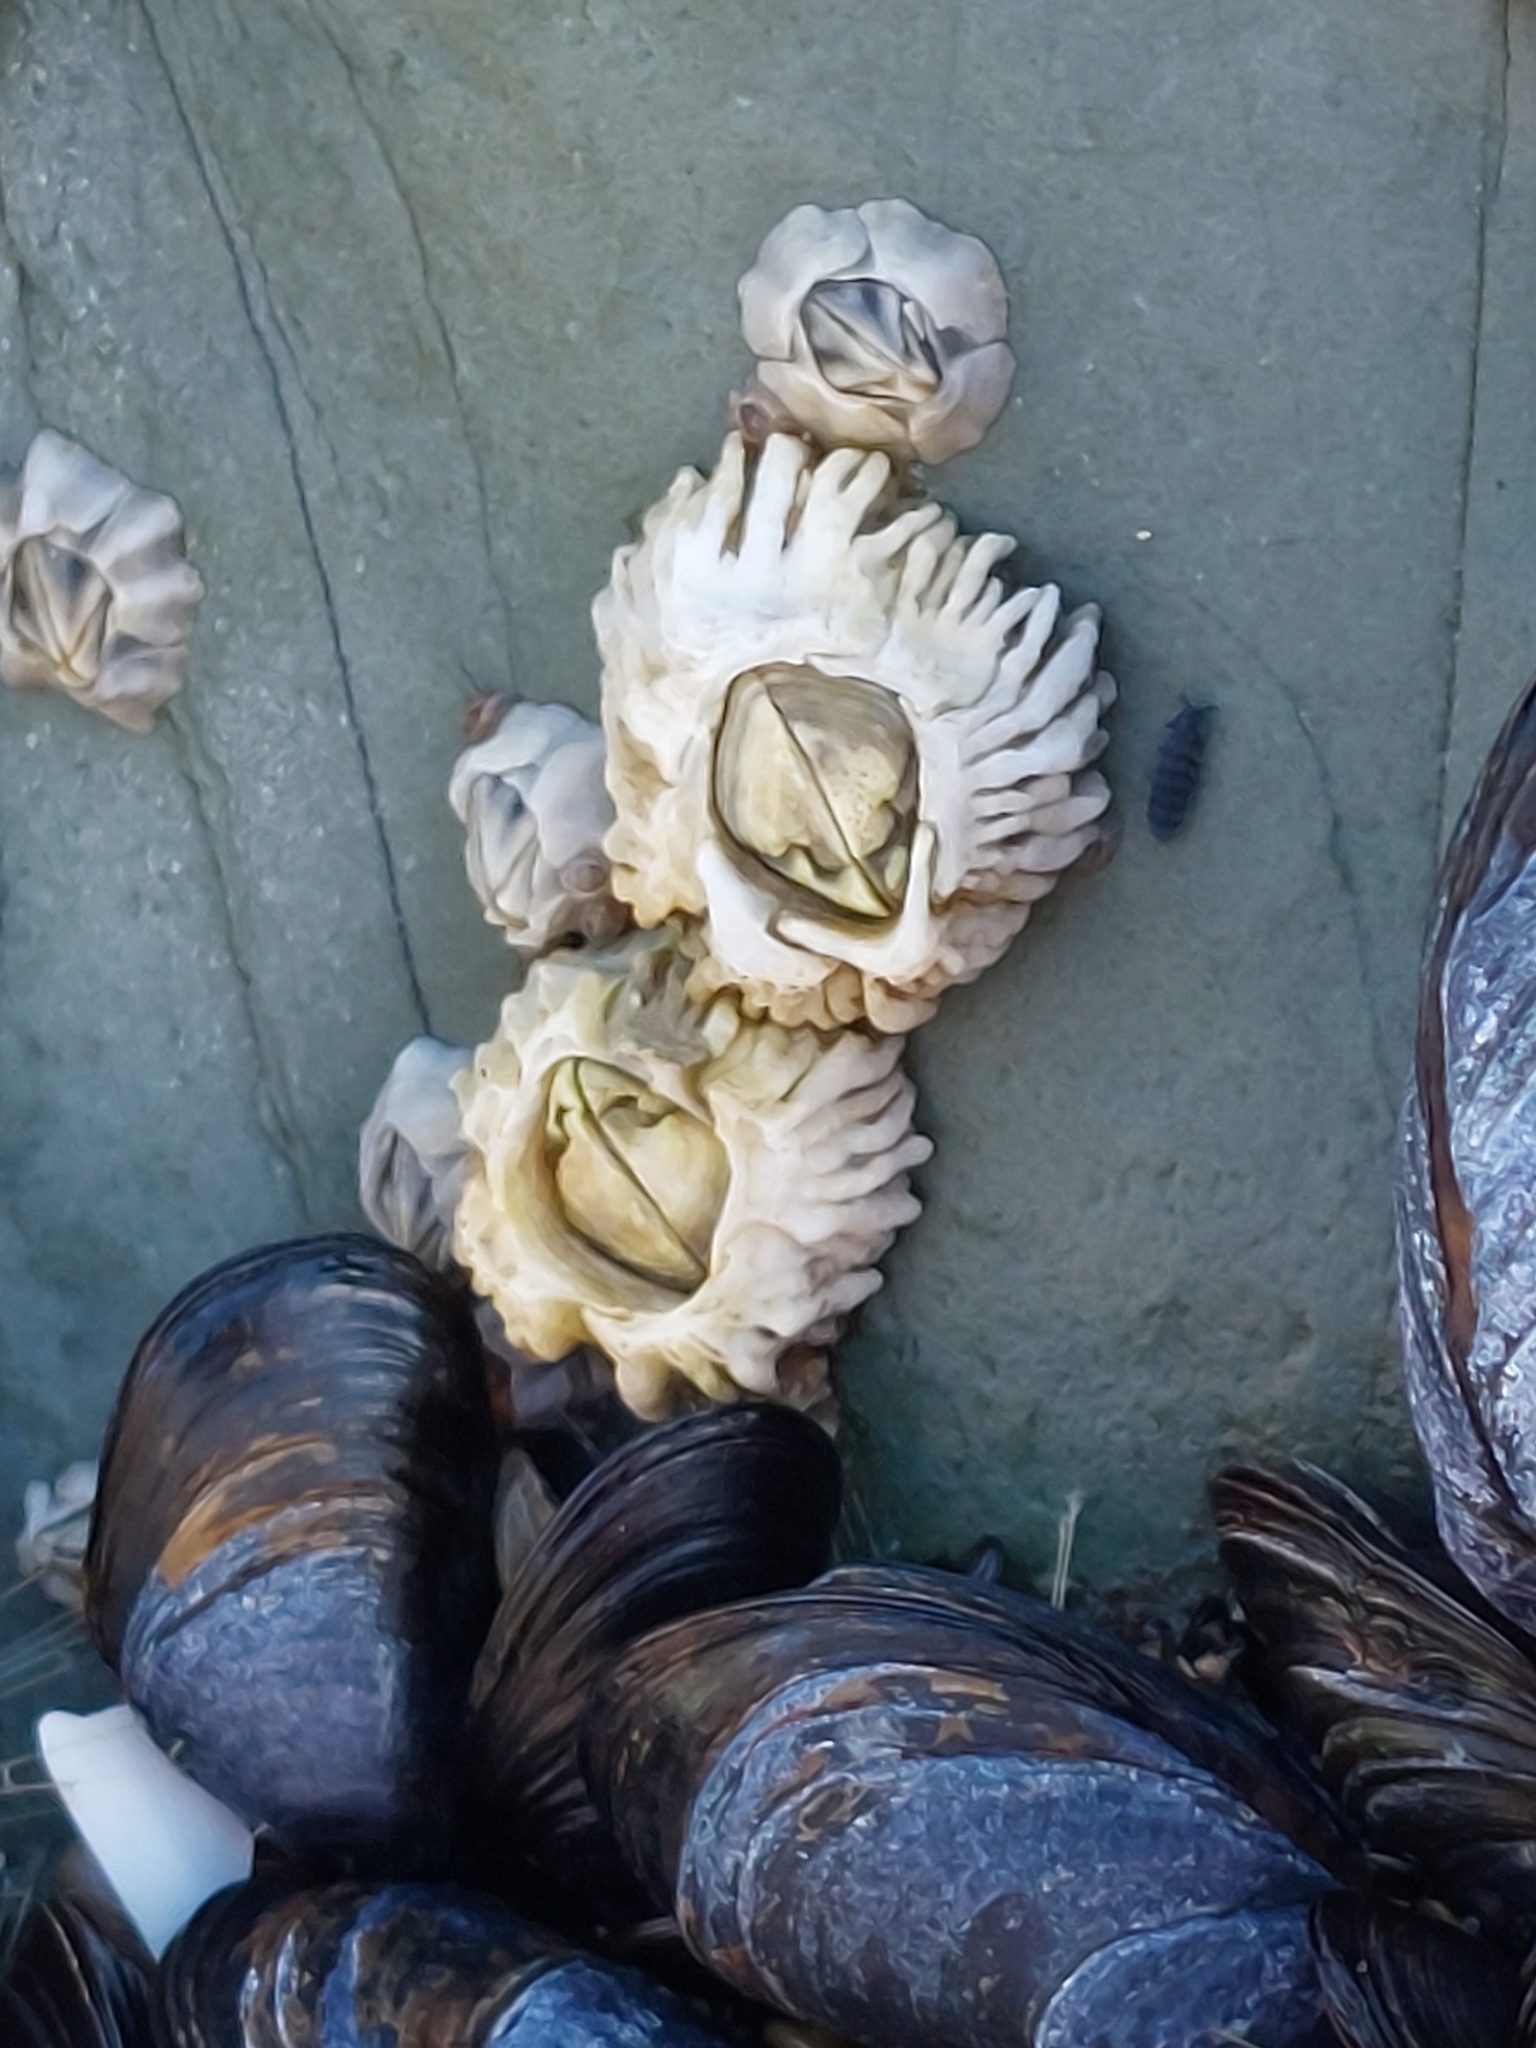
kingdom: Animalia
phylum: Arthropoda
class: Maxillopoda
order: Sessilia
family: Archaeobalanidae
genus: Semibalanus
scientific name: Semibalanus balanoides
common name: Acorn barnacle
